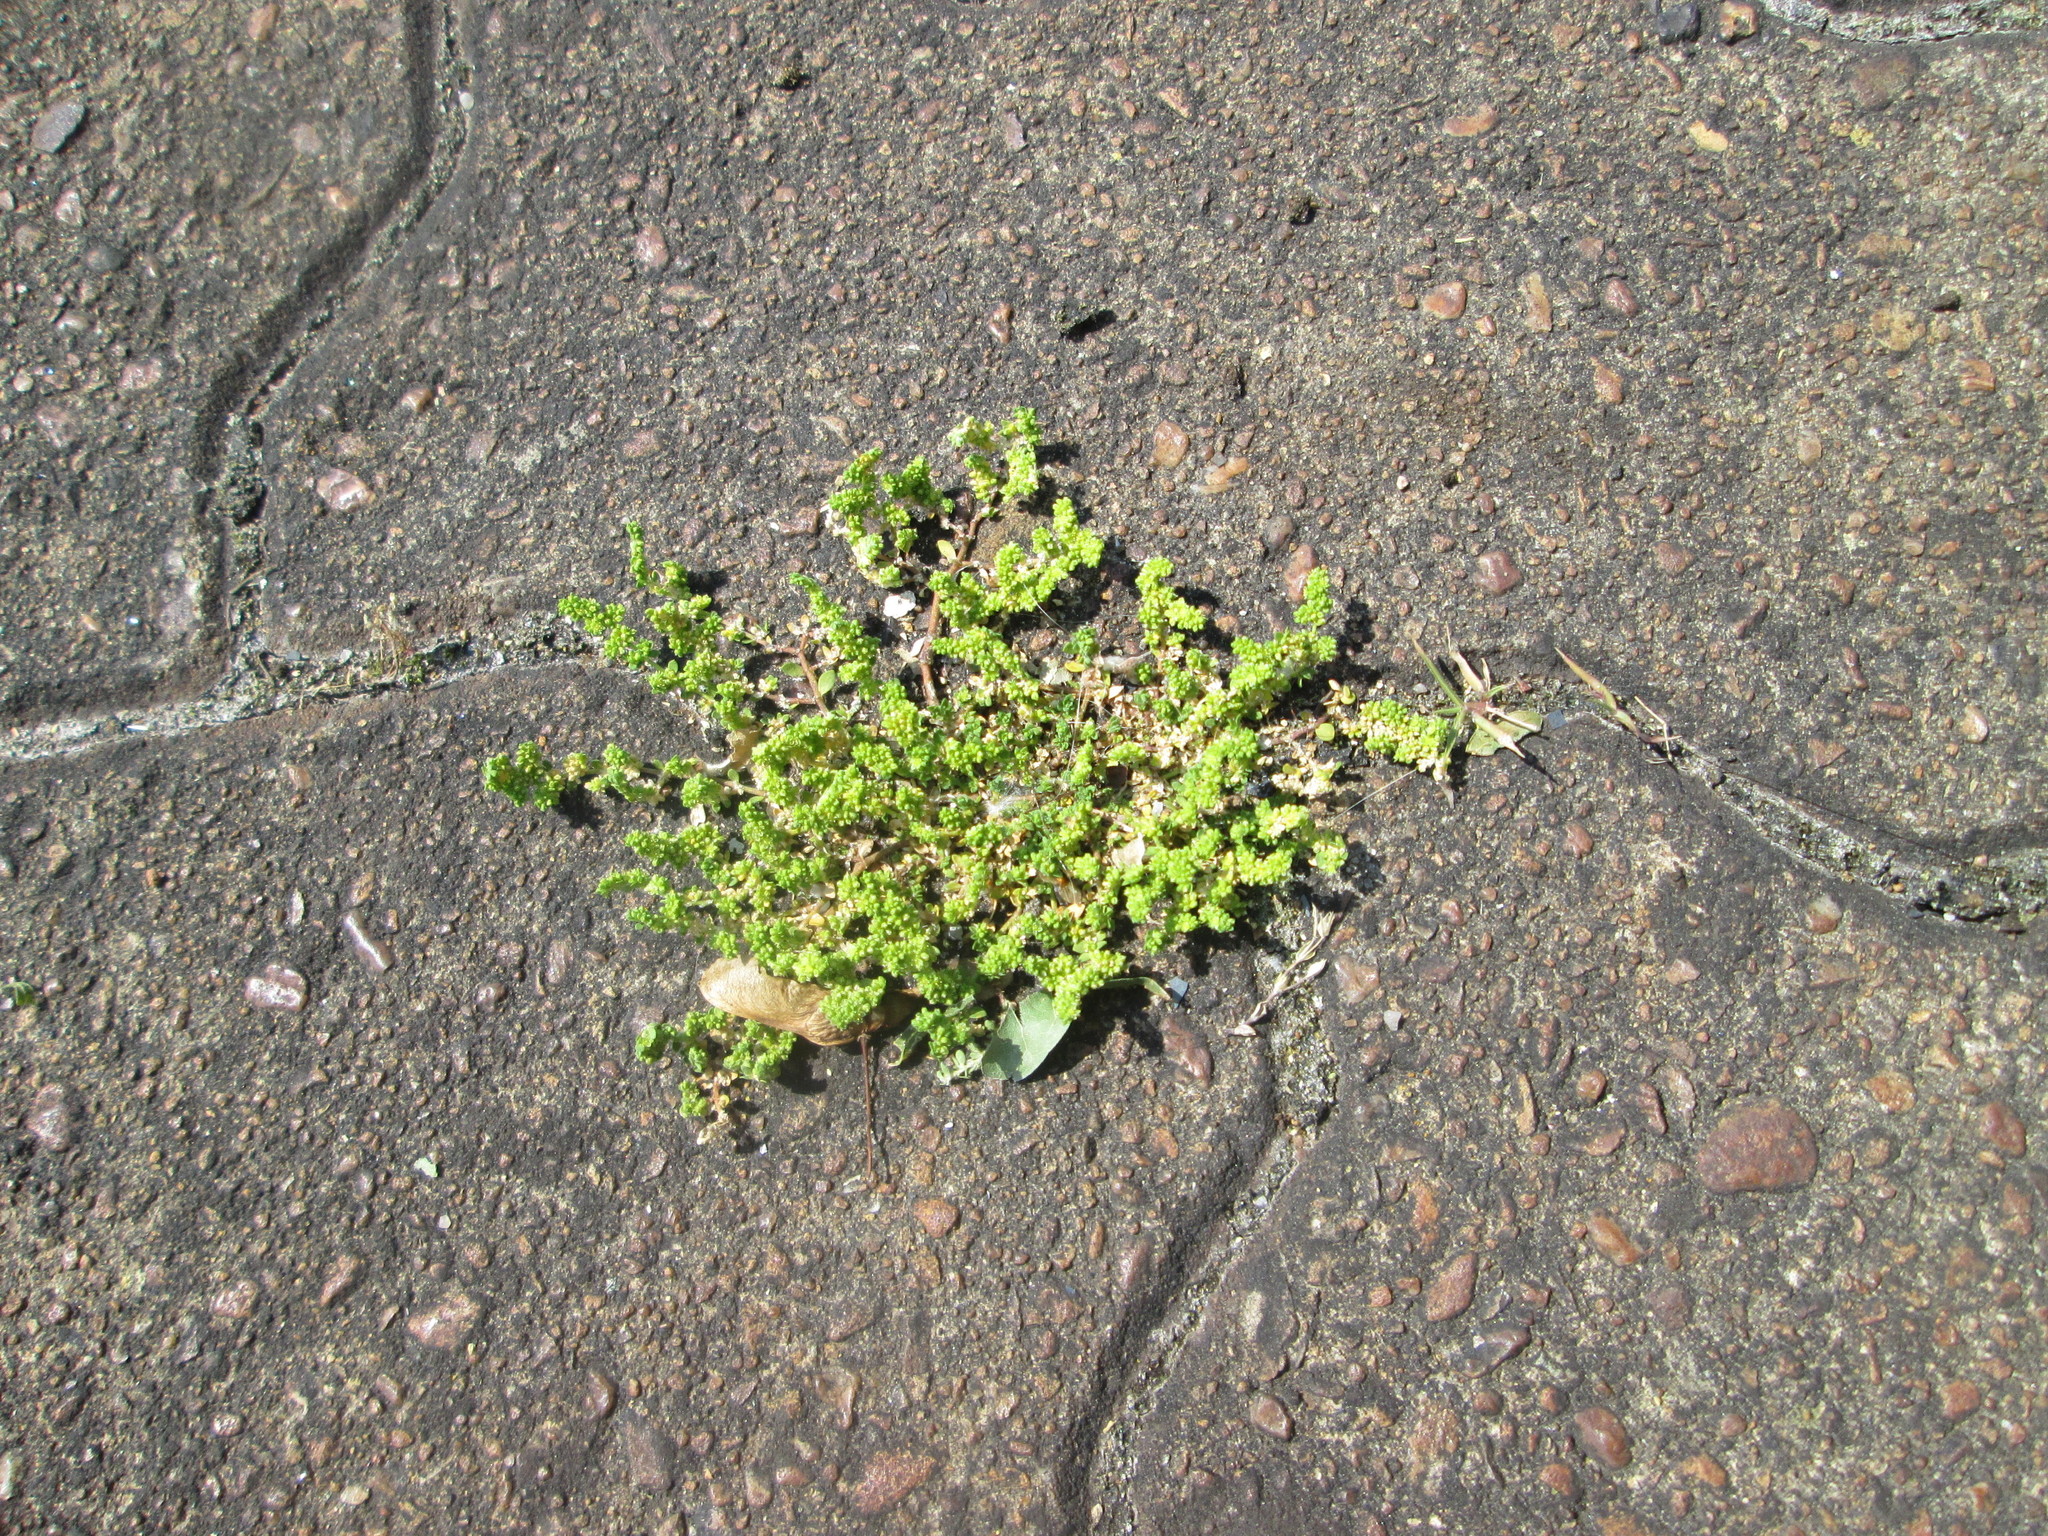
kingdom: Plantae
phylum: Tracheophyta
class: Magnoliopsida
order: Caryophyllales
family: Caryophyllaceae
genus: Herniaria
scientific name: Herniaria glabra
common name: Smooth rupturewort
